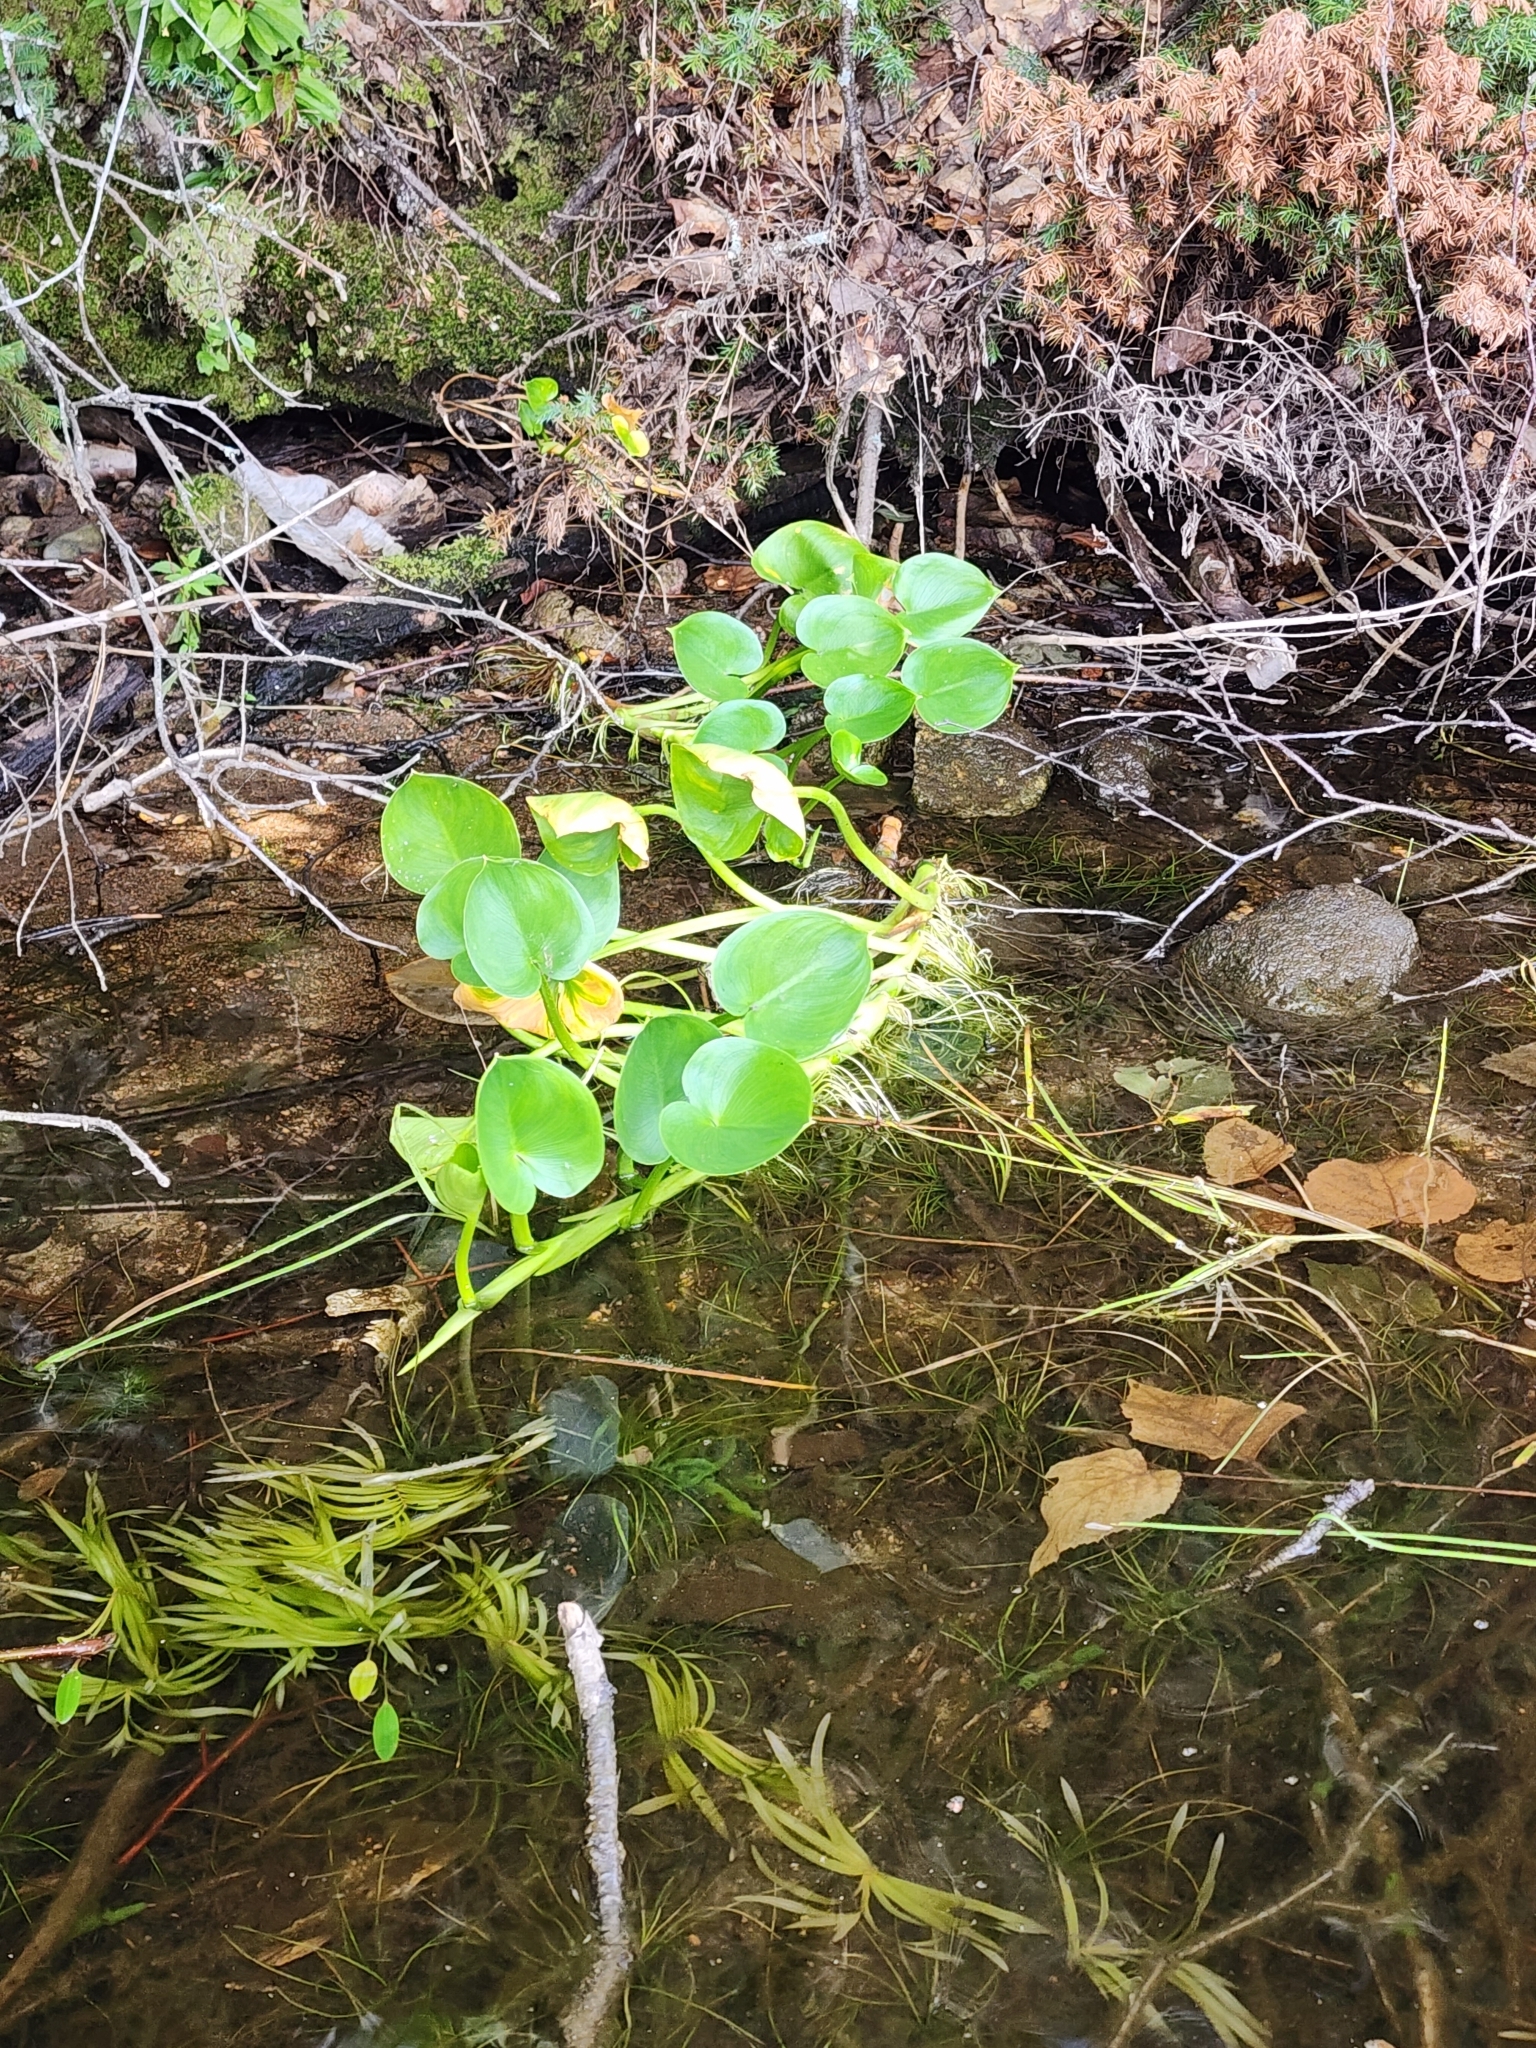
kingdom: Plantae
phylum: Tracheophyta
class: Liliopsida
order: Alismatales
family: Araceae
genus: Calla
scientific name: Calla palustris
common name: Bog arum
